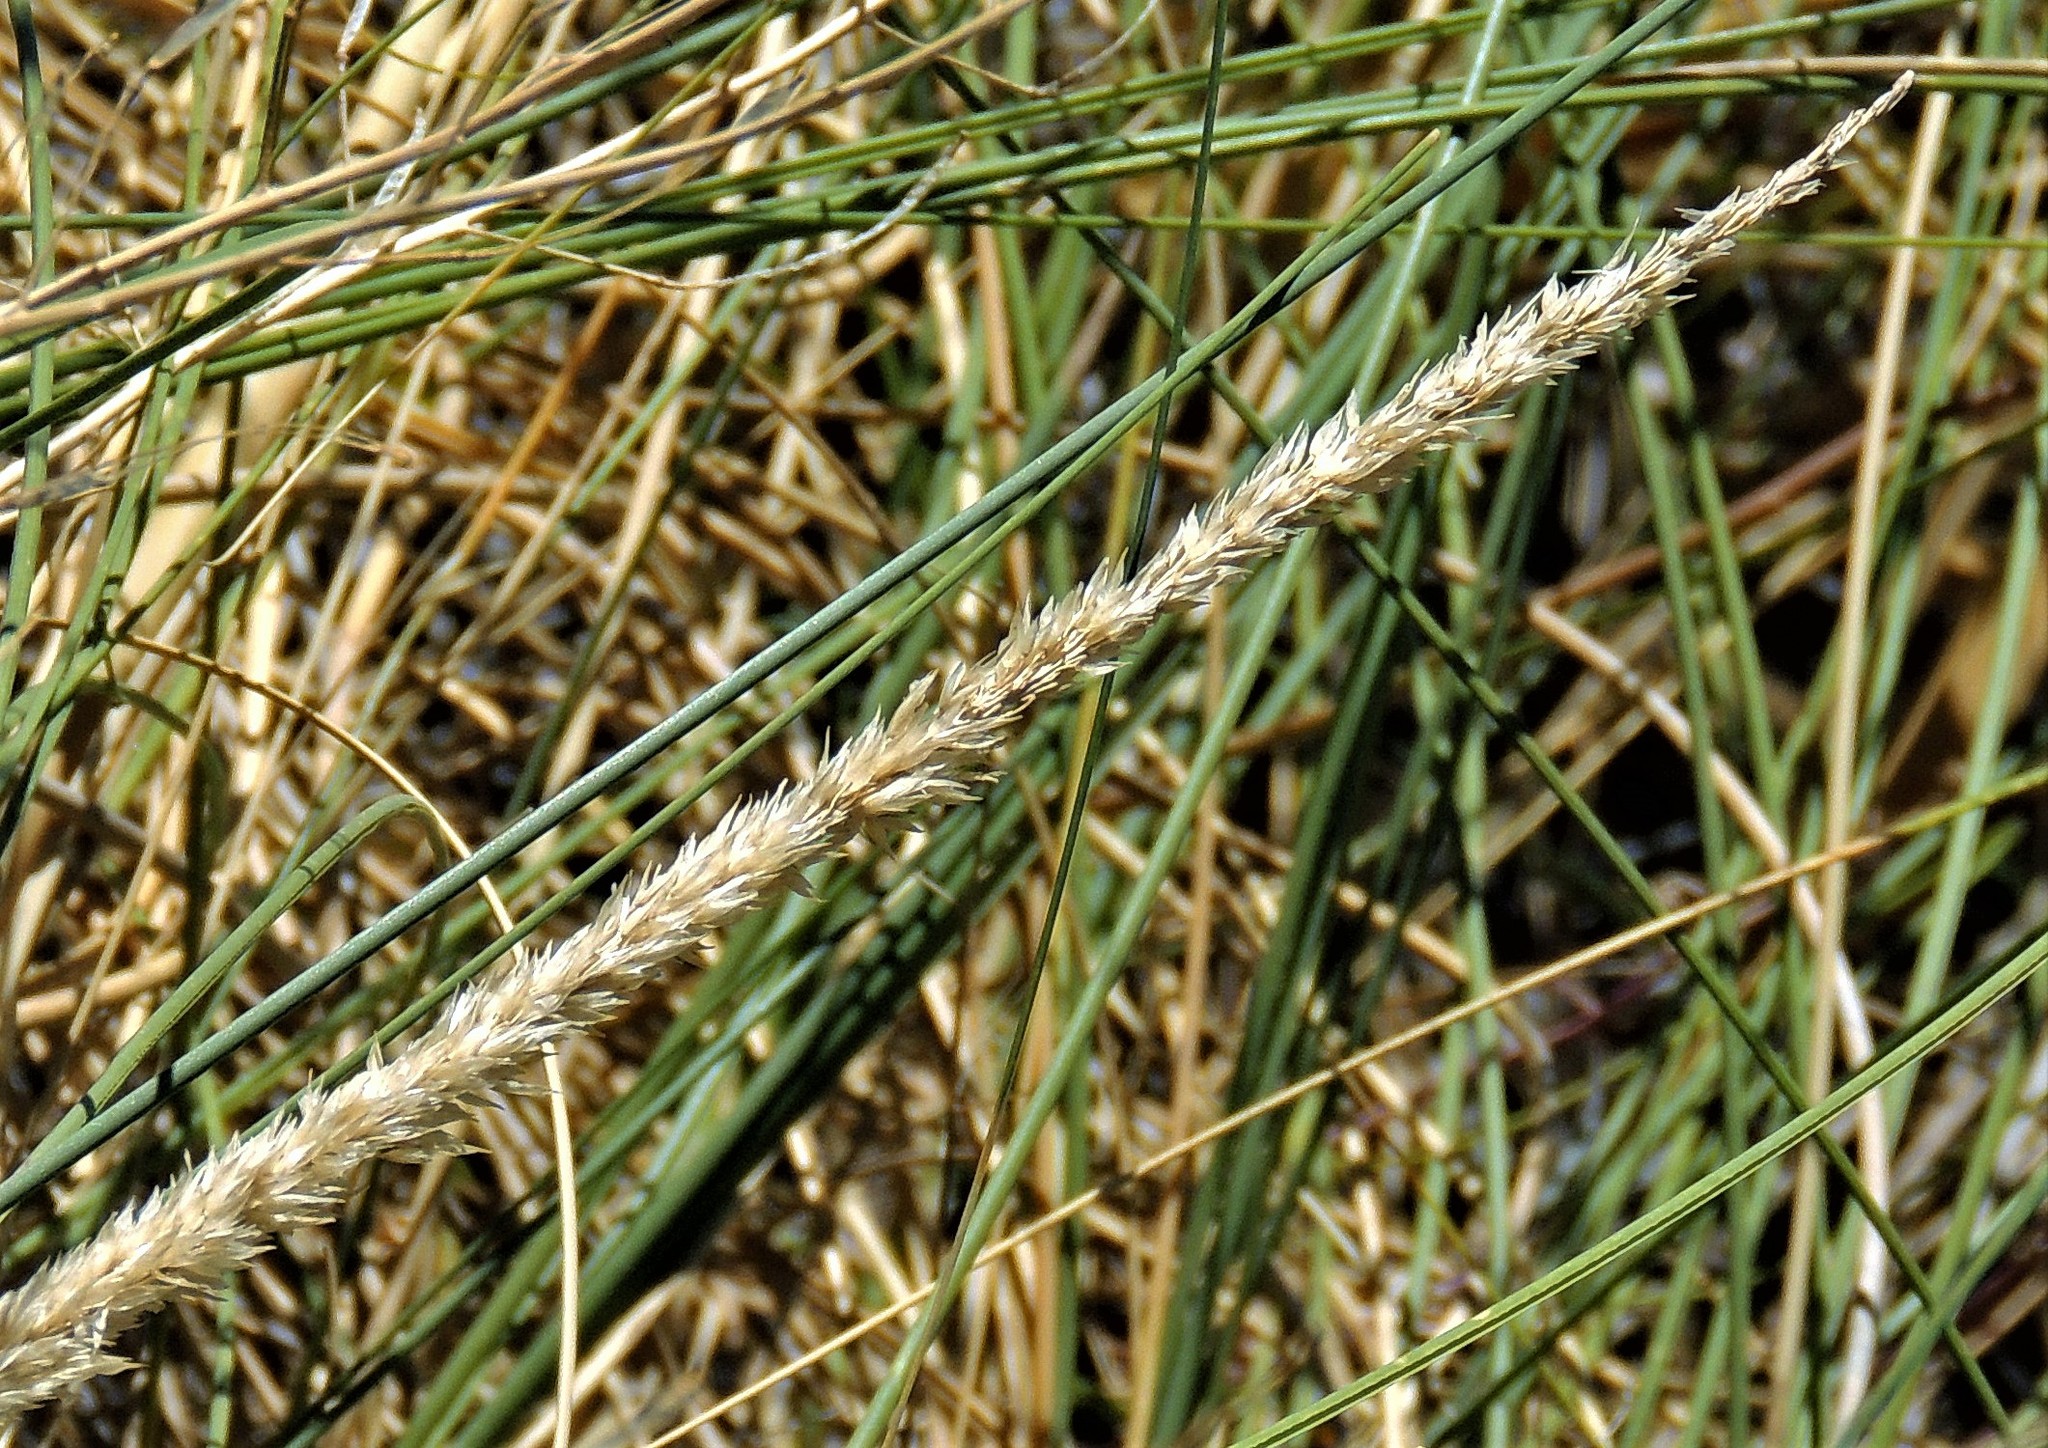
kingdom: Plantae
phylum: Tracheophyta
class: Liliopsida
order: Poales
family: Poaceae
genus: Sporobolus
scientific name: Sporobolus rigens
